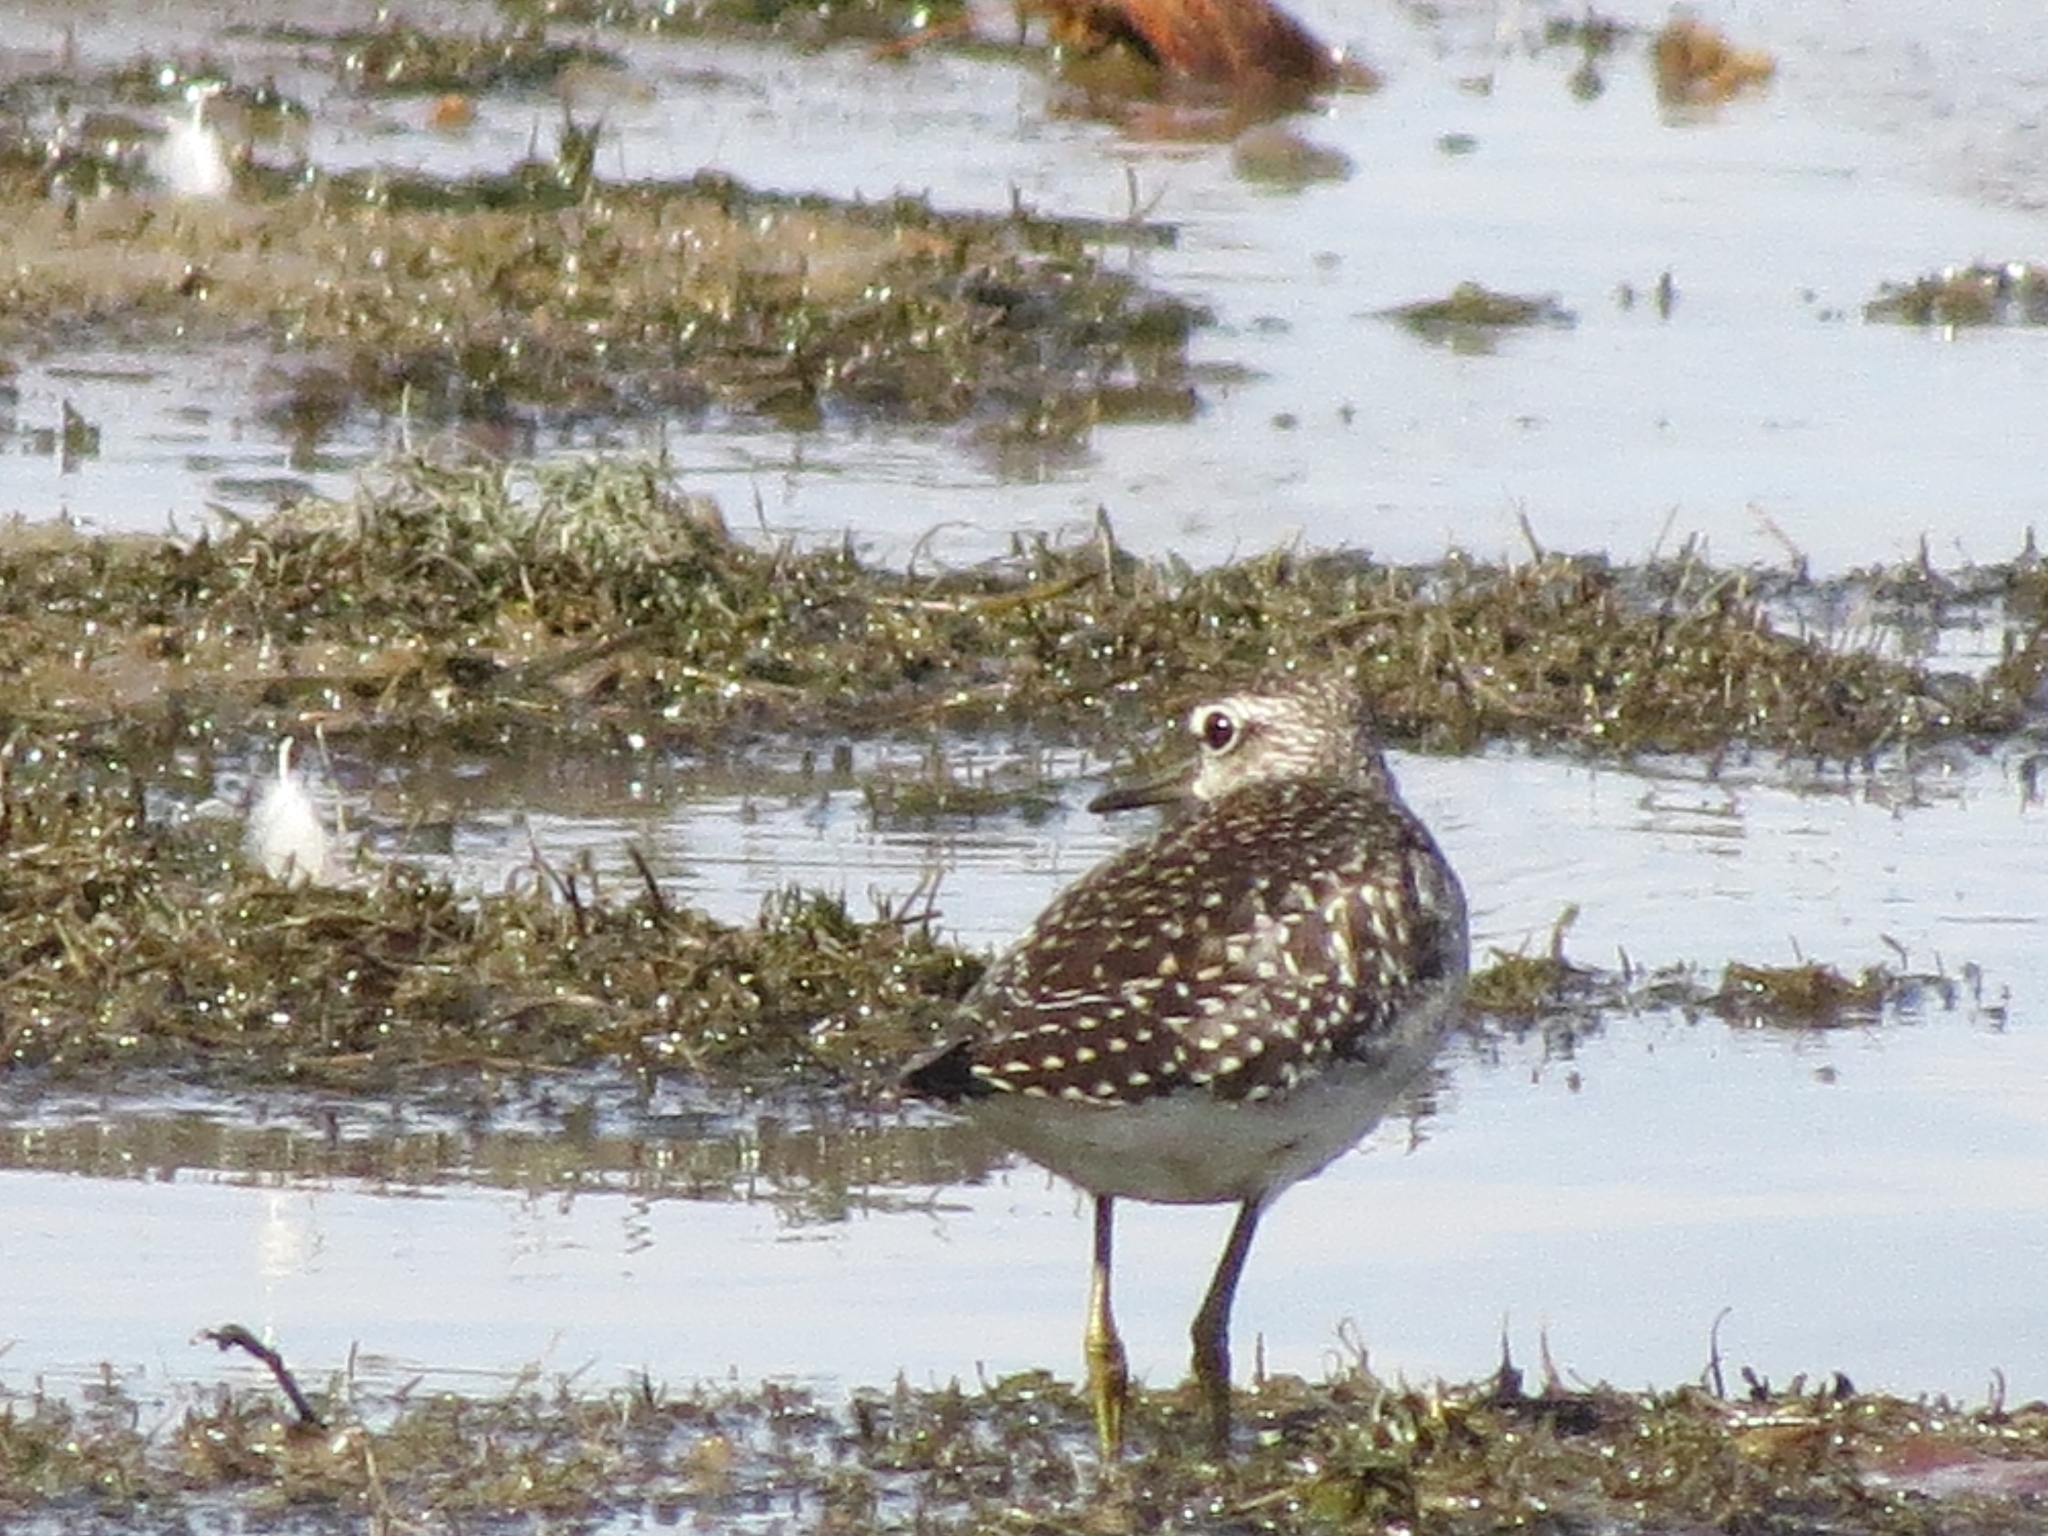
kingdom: Animalia
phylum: Chordata
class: Aves
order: Charadriiformes
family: Scolopacidae
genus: Tringa
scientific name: Tringa glareola
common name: Wood sandpiper
